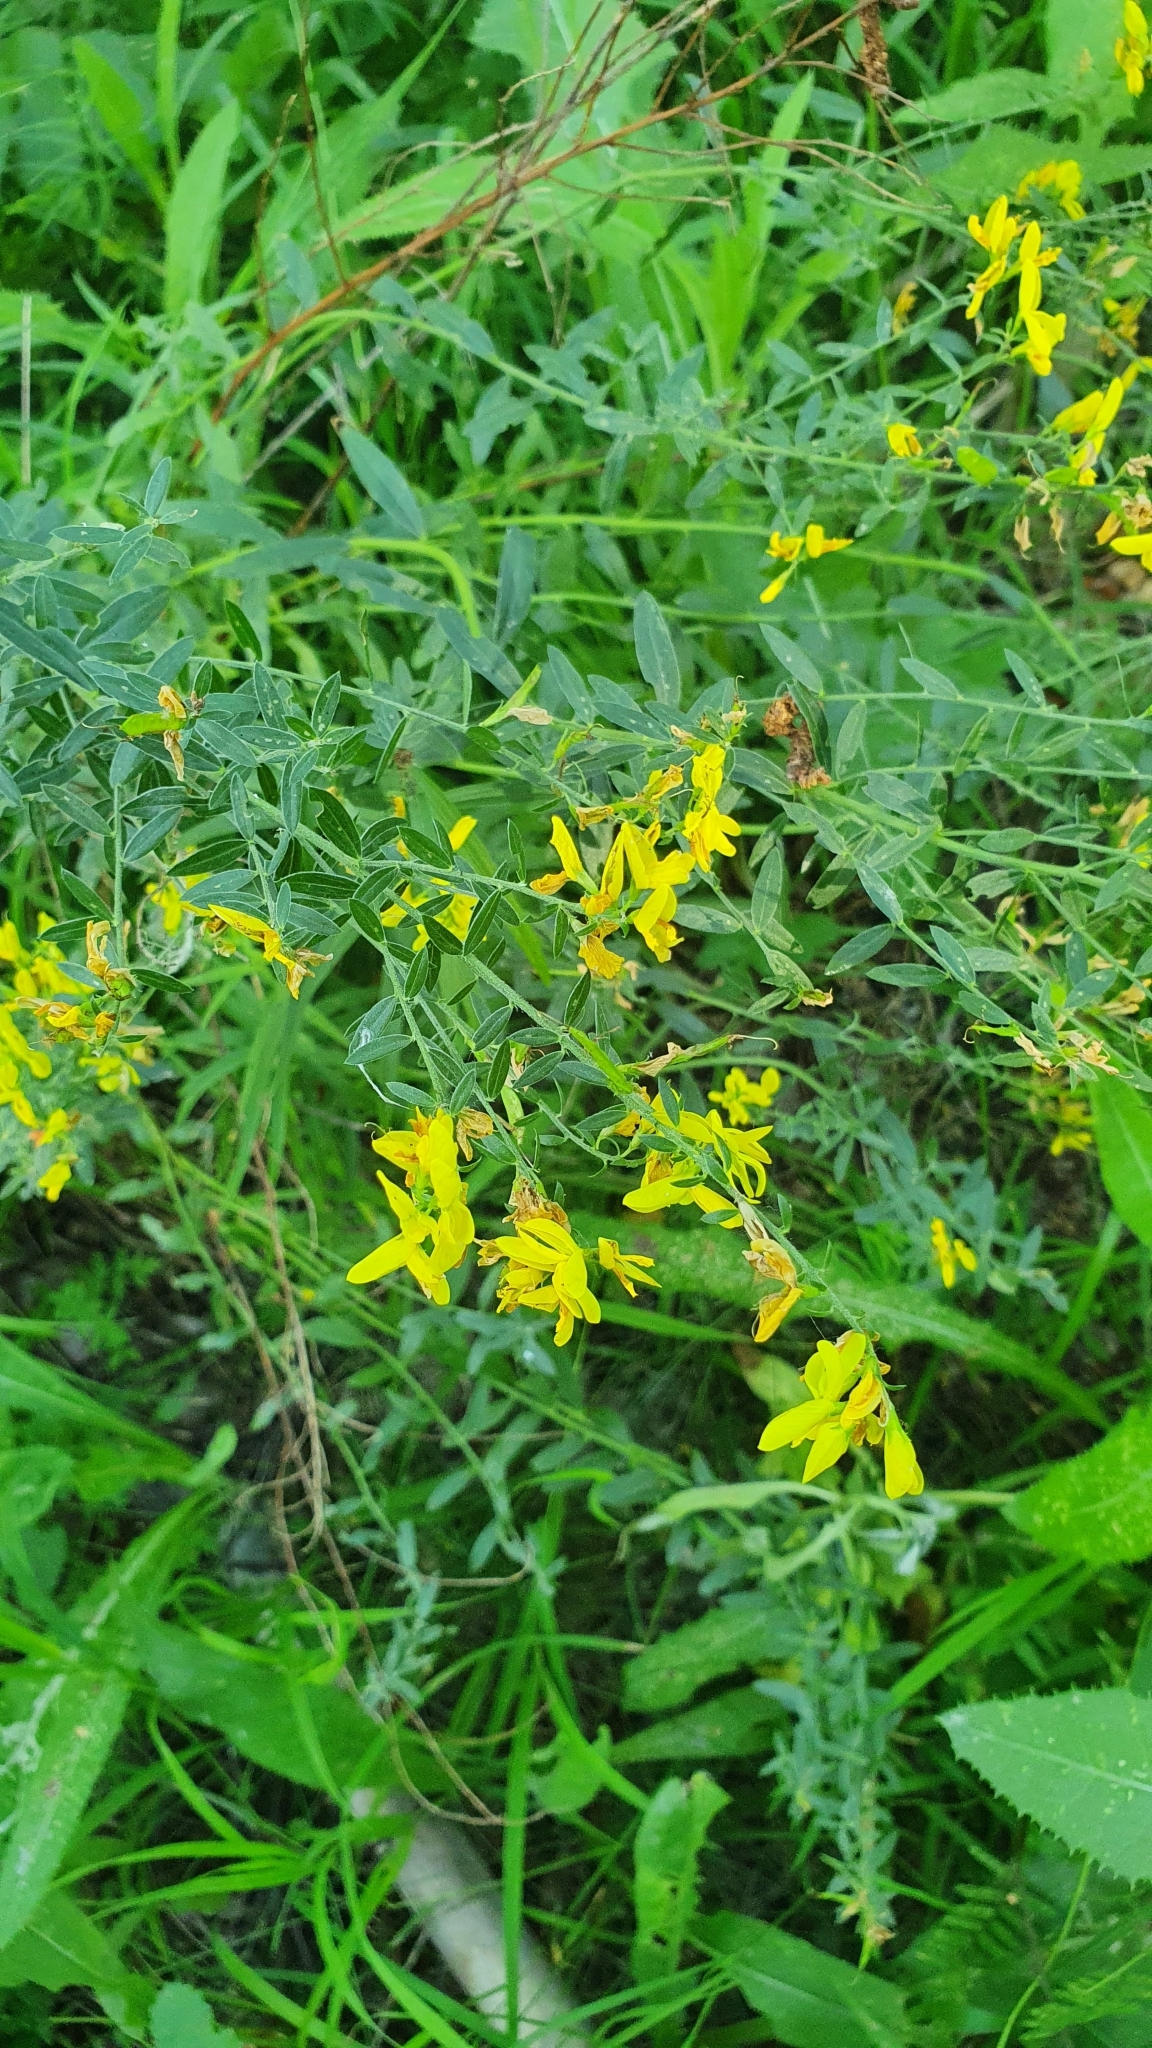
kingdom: Plantae
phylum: Tracheophyta
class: Magnoliopsida
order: Fabales
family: Fabaceae
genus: Genista
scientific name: Genista tinctoria
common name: Dyer's greenweed
